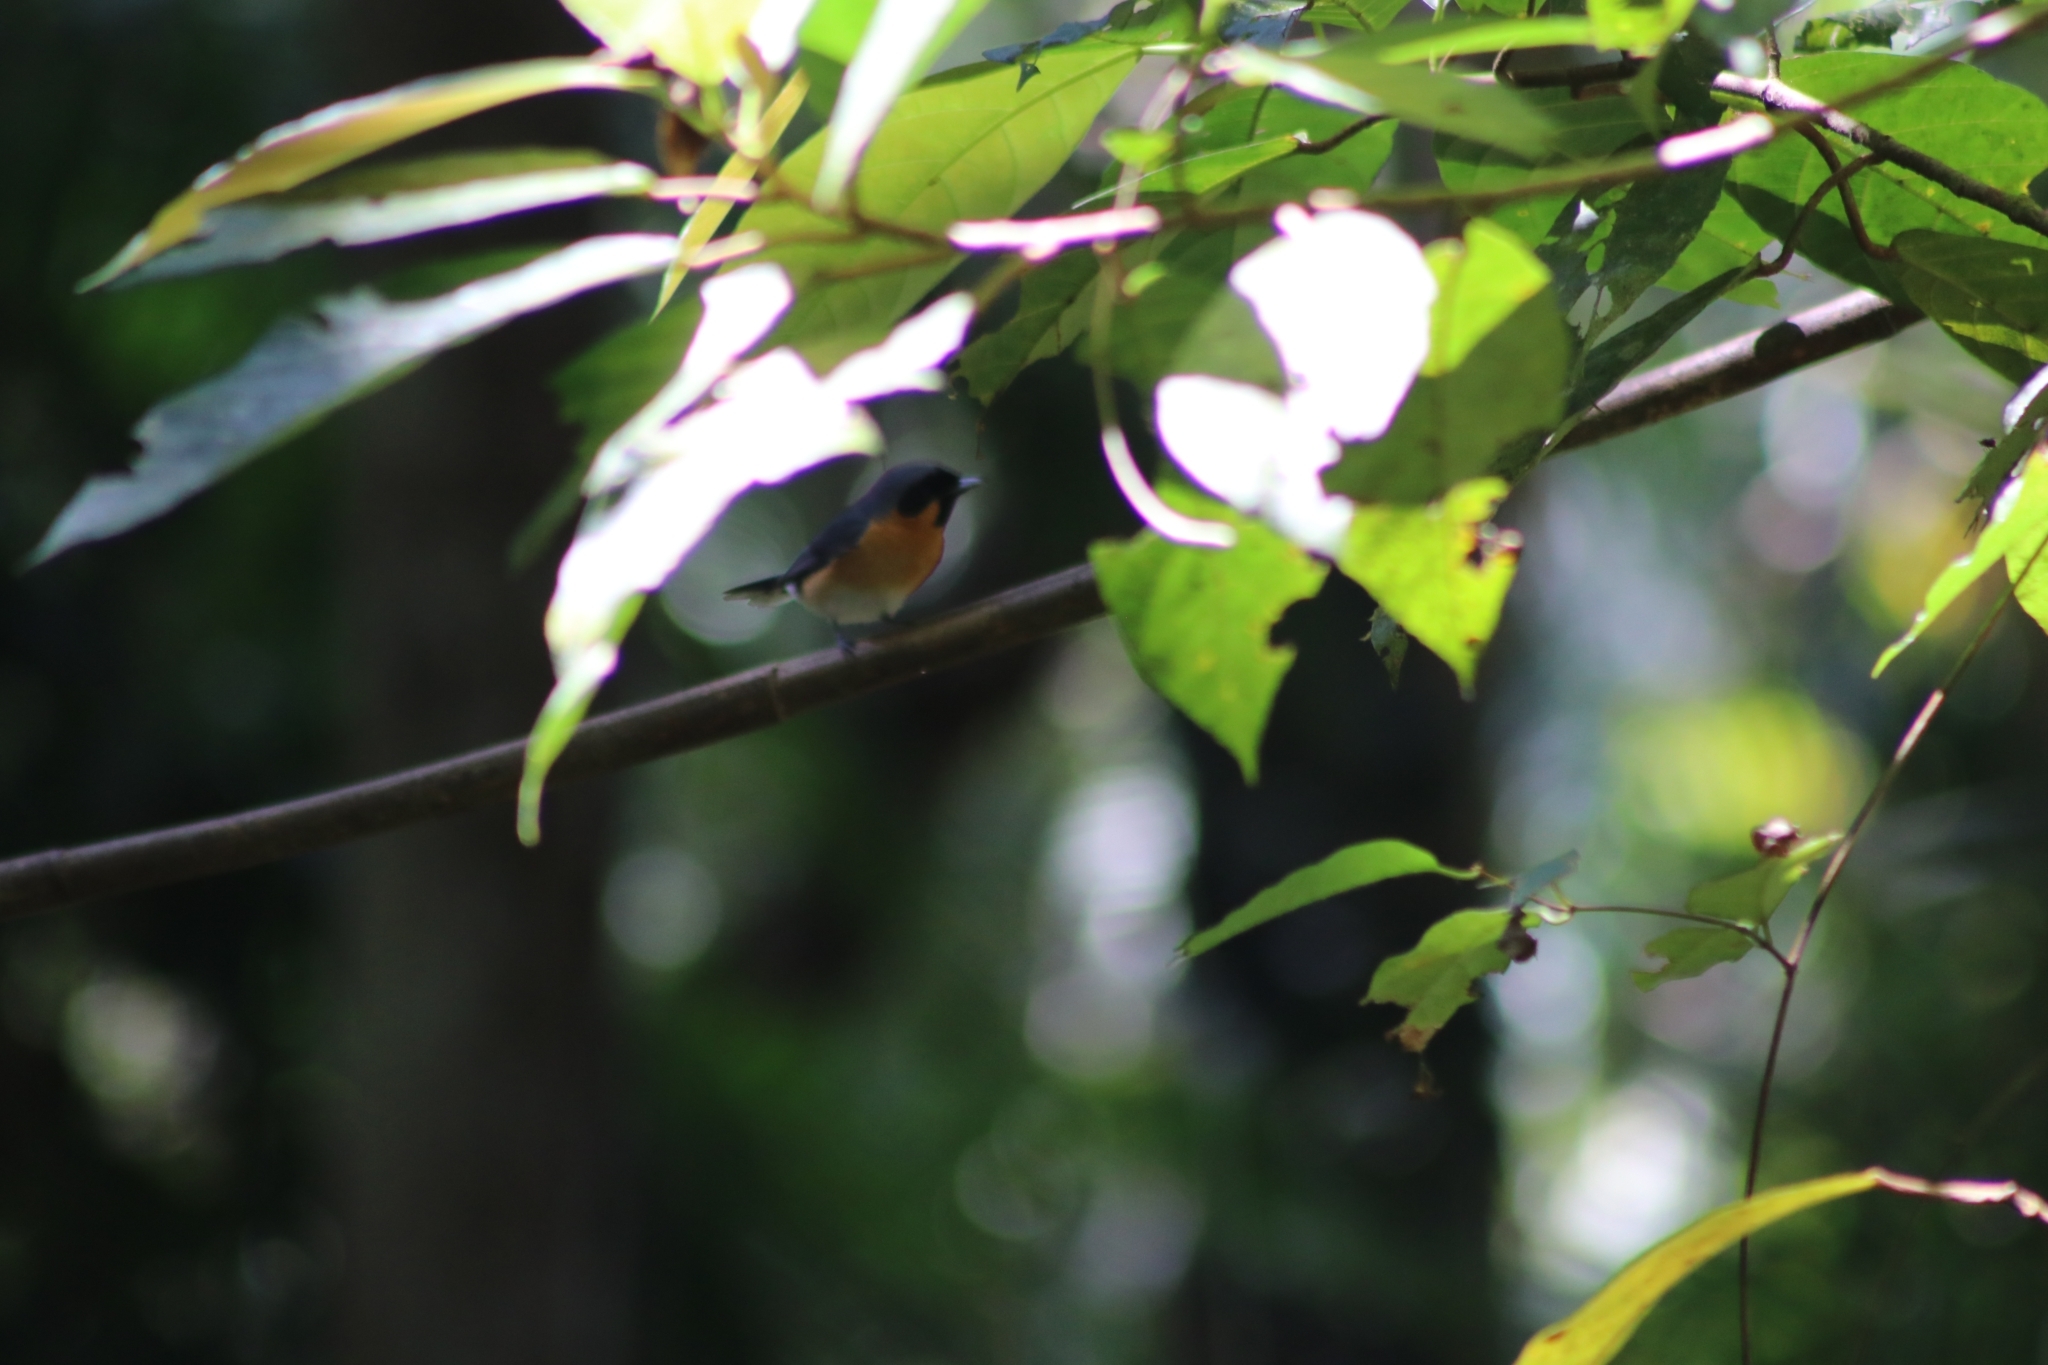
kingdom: Animalia
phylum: Chordata
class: Aves
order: Passeriformes
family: Monarchidae
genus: Symposiachrus
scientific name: Symposiachrus trivirgatus
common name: Spectacled monarch
